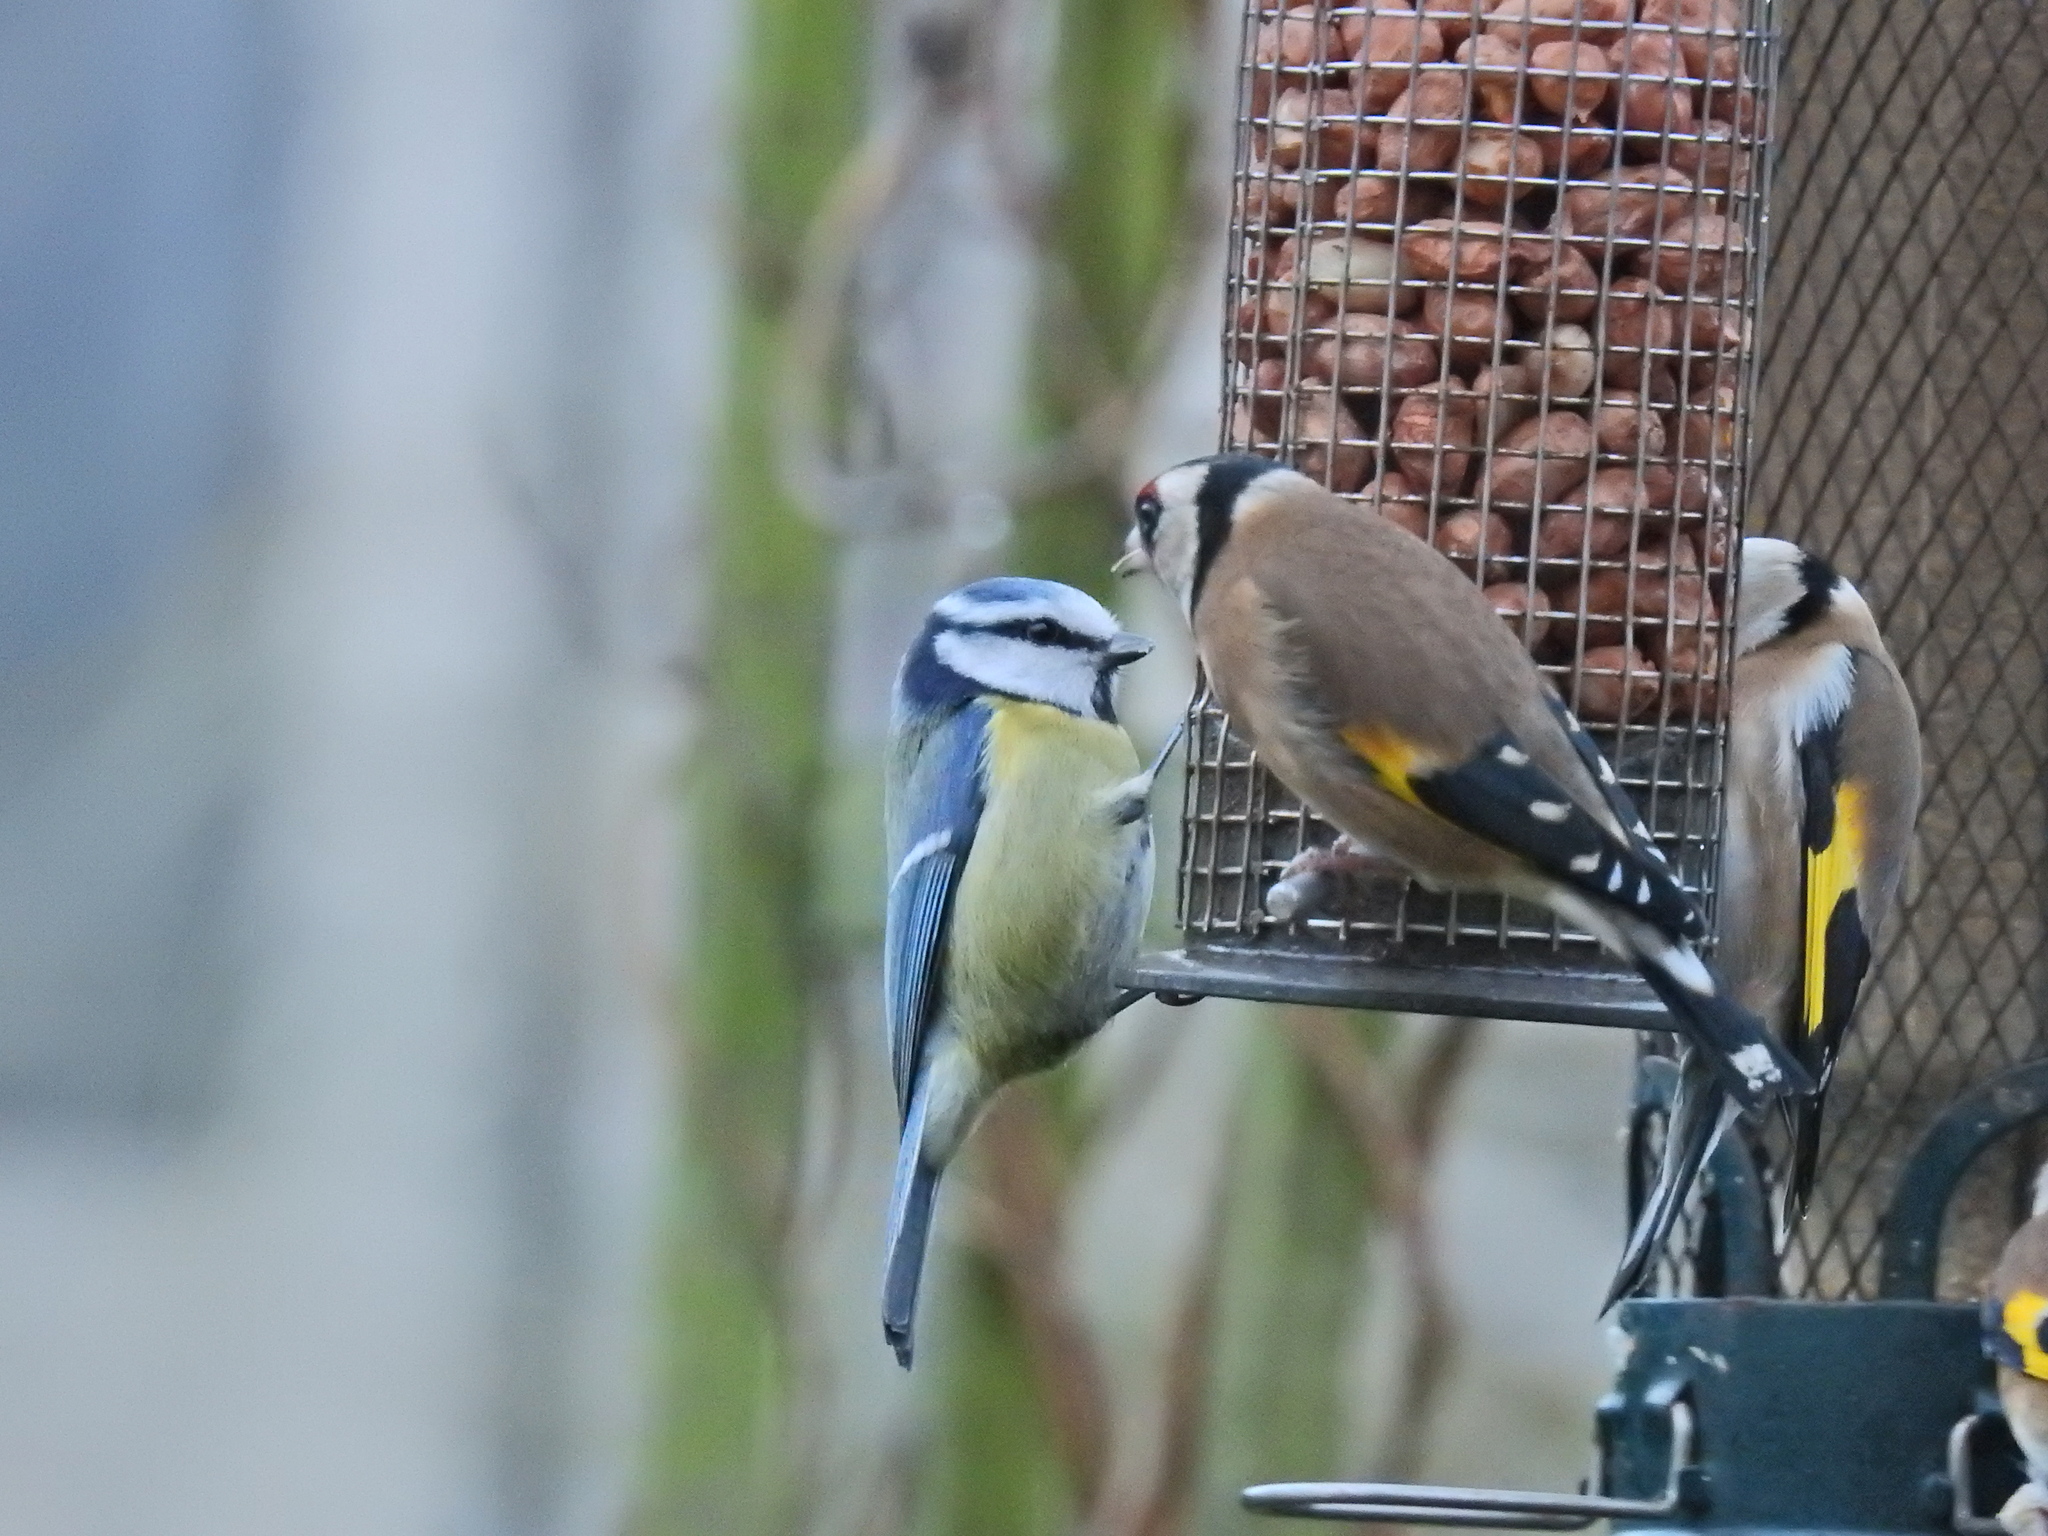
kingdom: Animalia
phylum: Chordata
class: Aves
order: Passeriformes
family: Paridae
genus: Cyanistes
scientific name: Cyanistes caeruleus
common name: Eurasian blue tit
